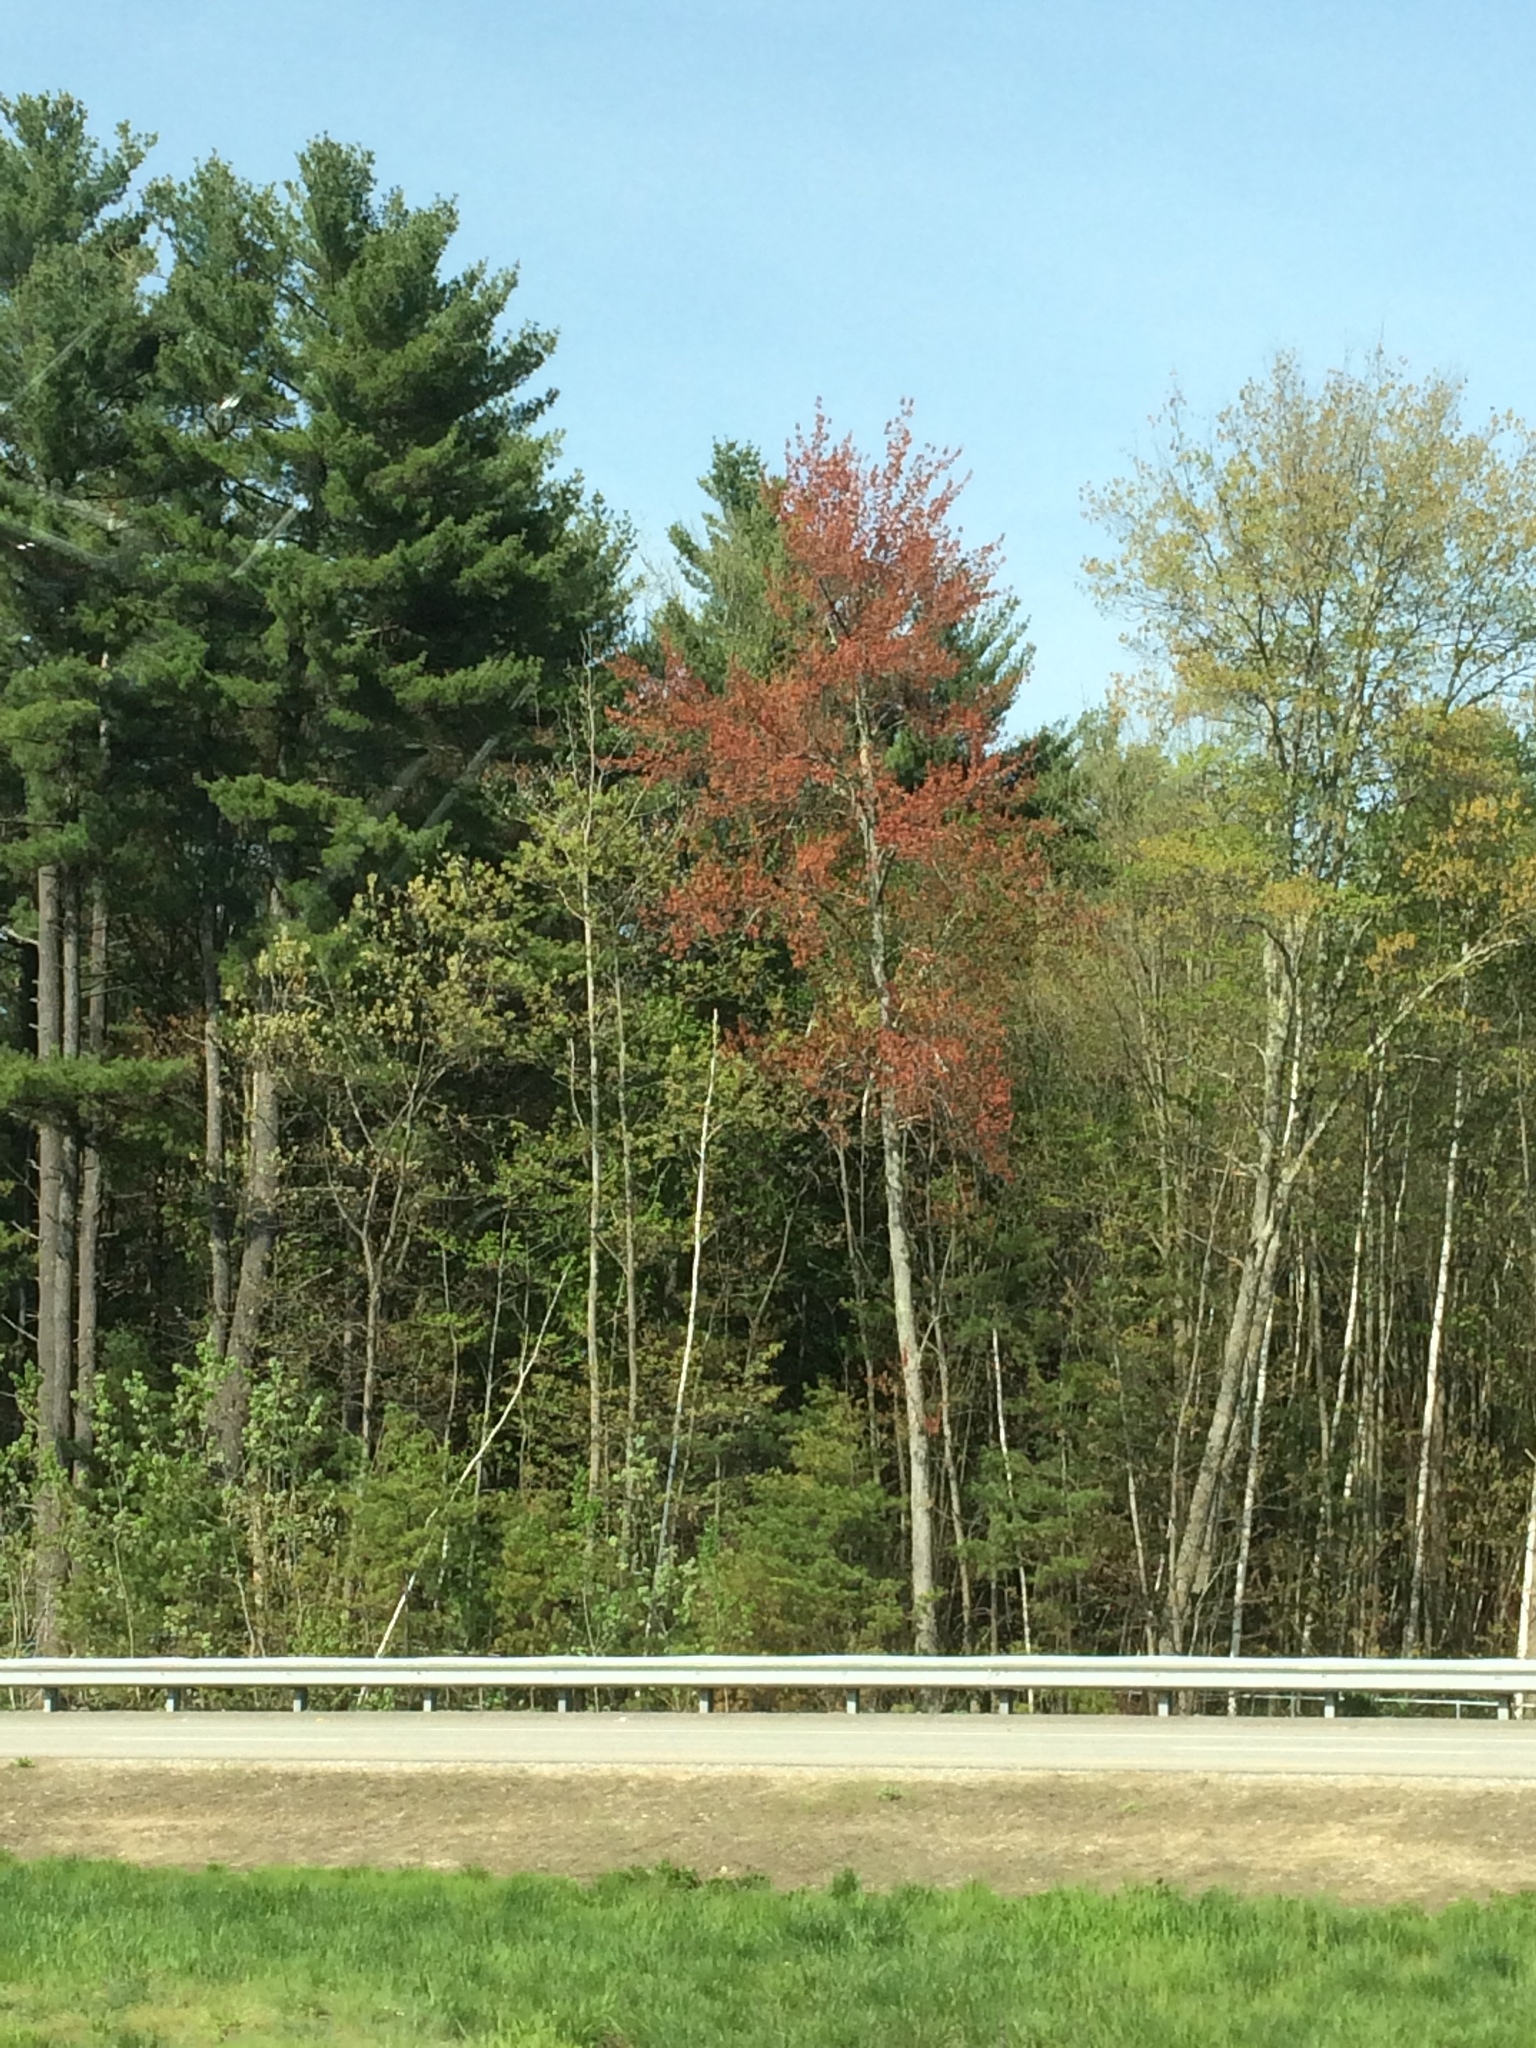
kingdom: Plantae
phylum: Tracheophyta
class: Pinopsida
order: Pinales
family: Pinaceae
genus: Pinus
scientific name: Pinus strobus
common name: Weymouth pine
